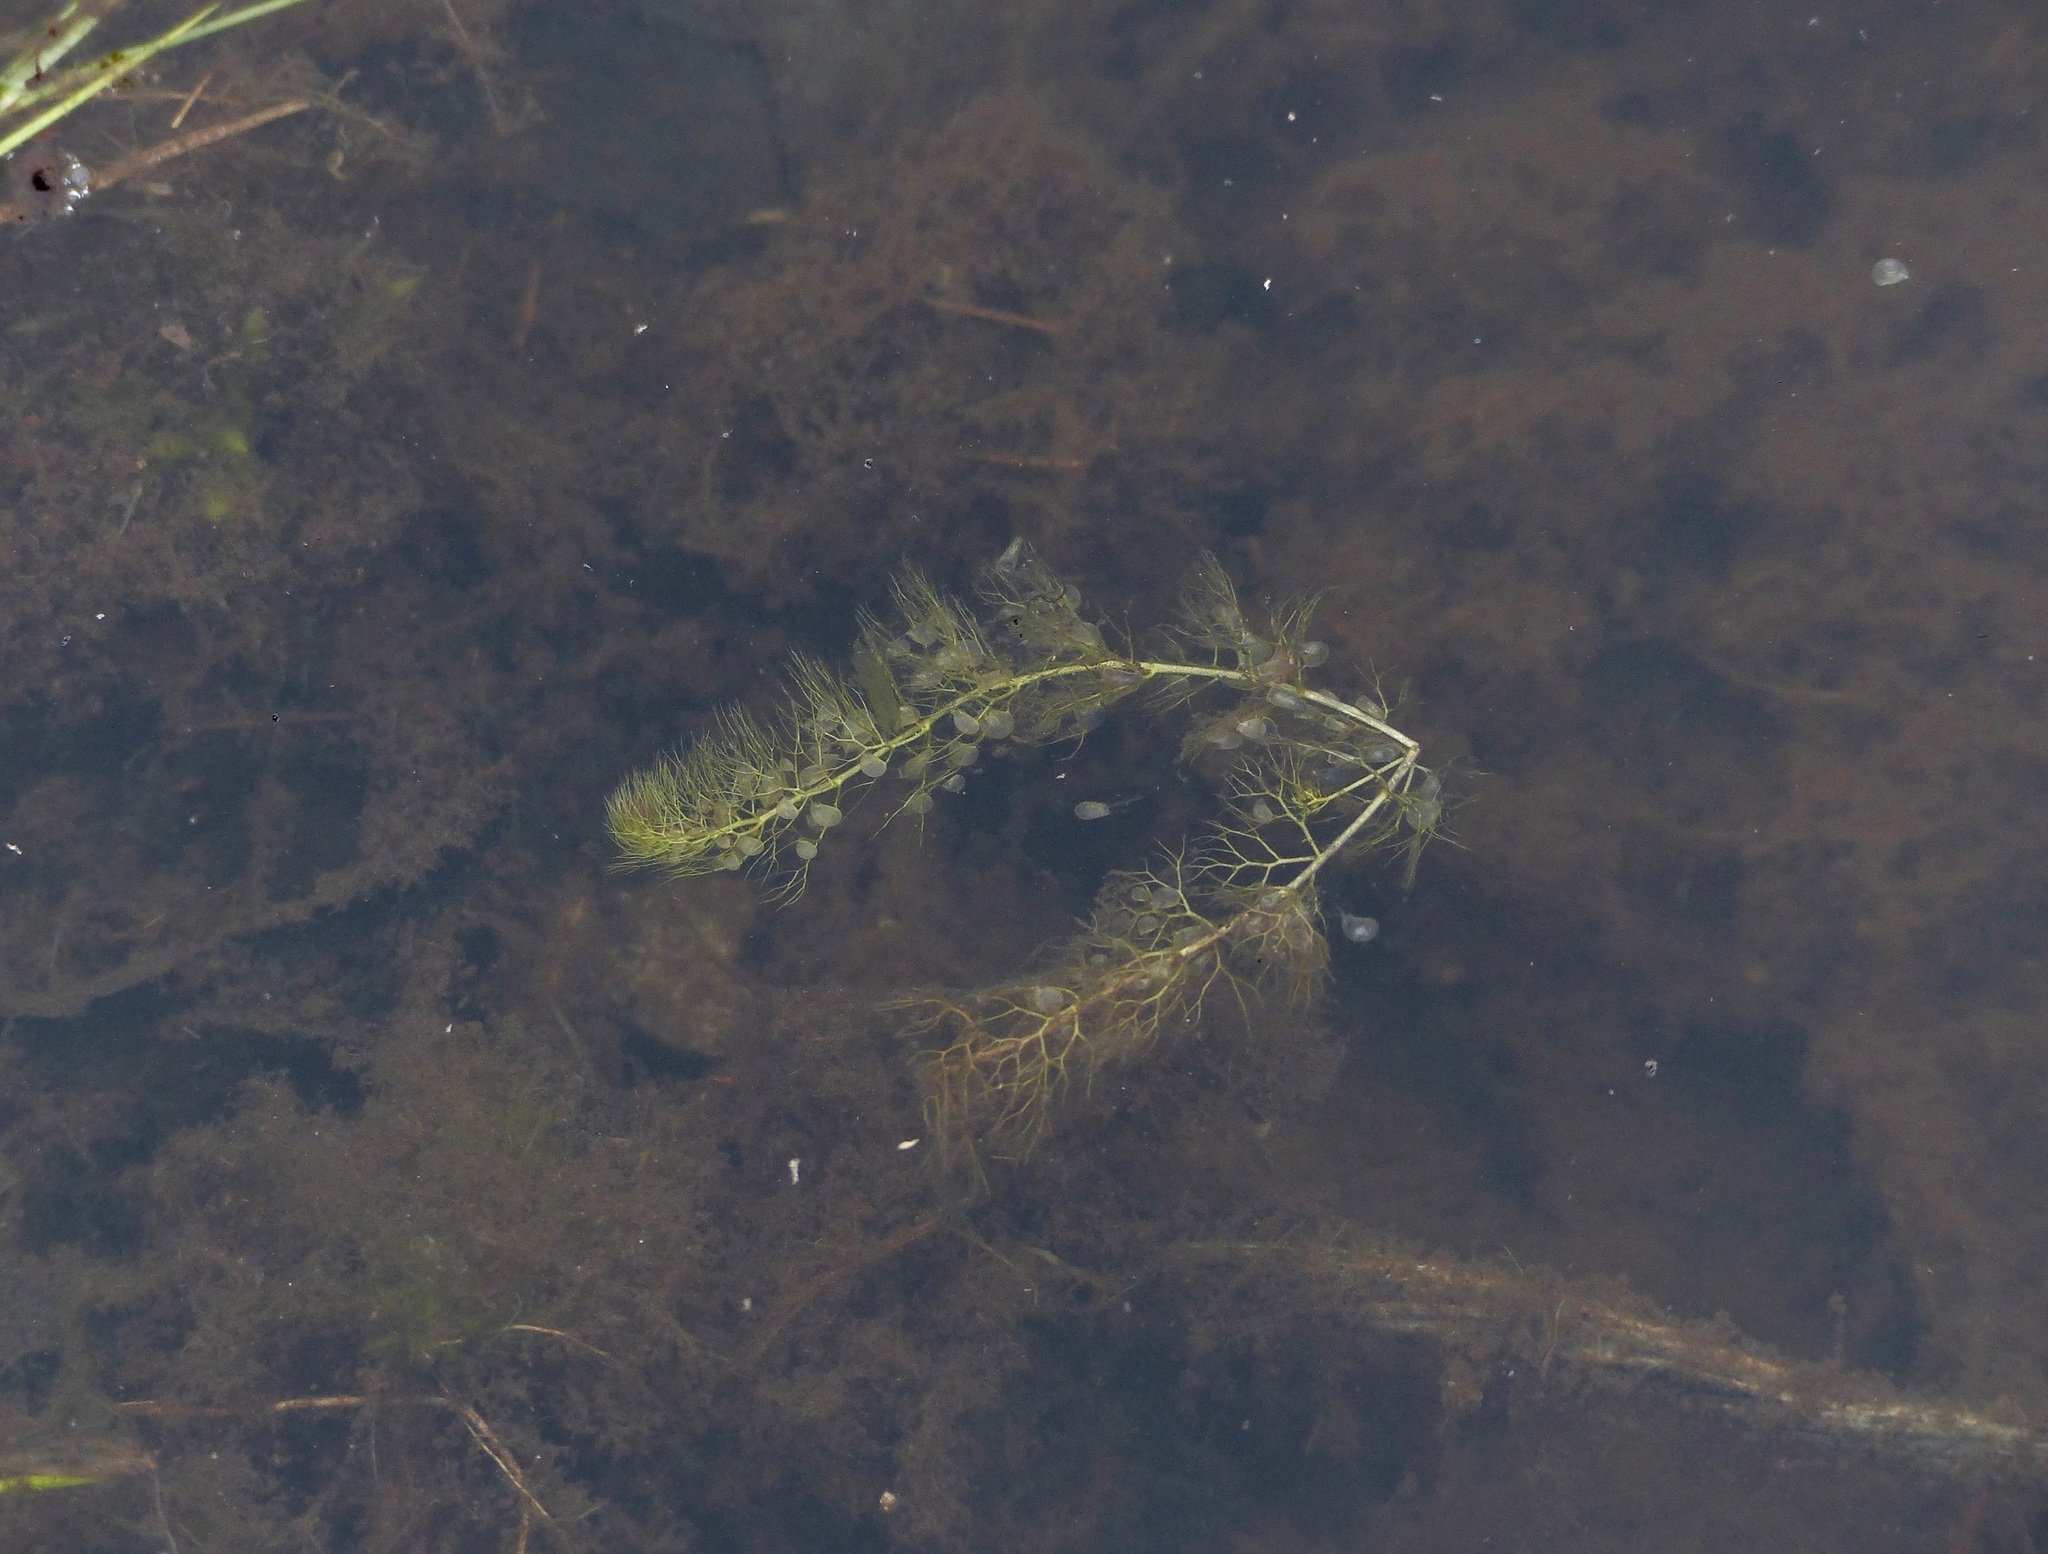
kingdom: Plantae
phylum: Tracheophyta
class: Magnoliopsida
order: Lamiales
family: Lentibulariaceae
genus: Utricularia
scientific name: Utricularia macrorhiza
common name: Common bladderwort
